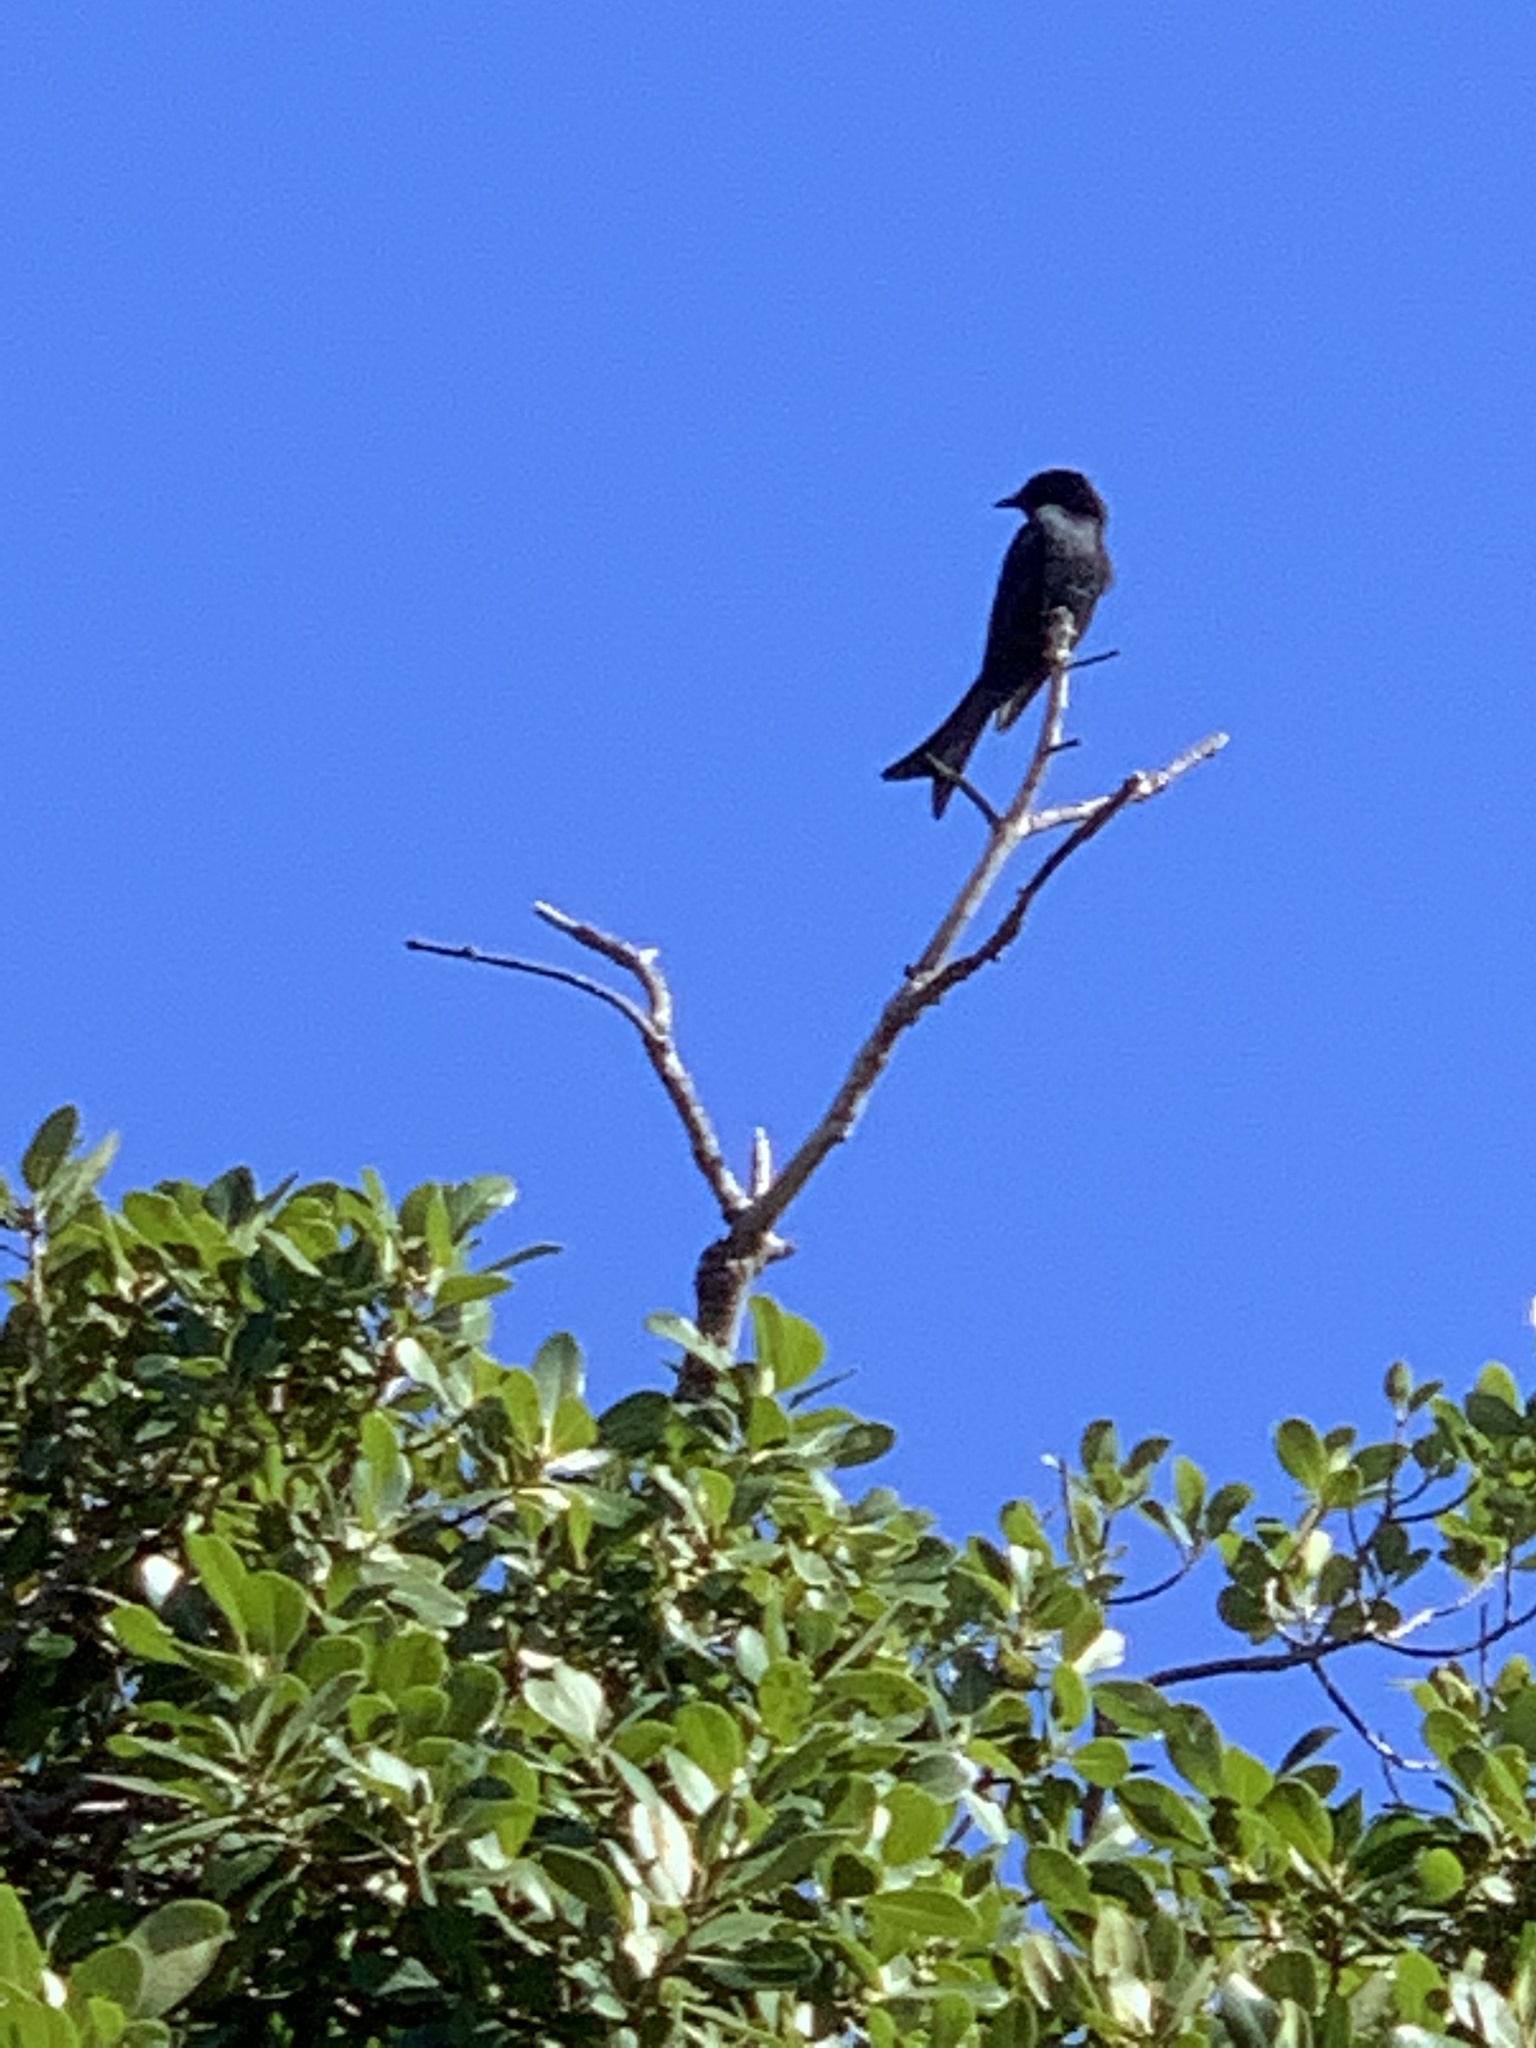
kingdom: Animalia
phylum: Chordata
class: Aves
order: Passeriformes
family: Dicruridae
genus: Dicrurus
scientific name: Dicrurus adsimilis
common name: Fork-tailed drongo
